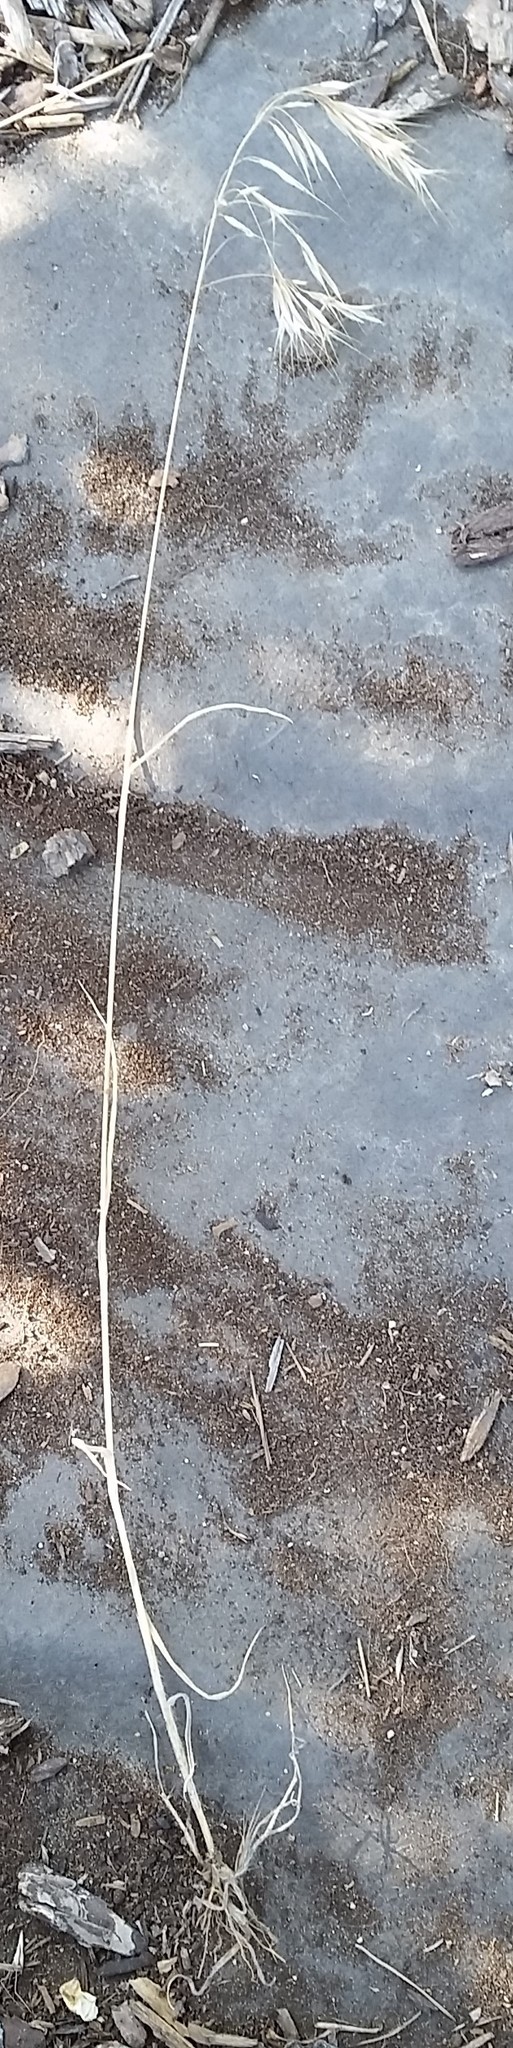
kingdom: Plantae
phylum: Tracheophyta
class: Liliopsida
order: Poales
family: Poaceae
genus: Bromus
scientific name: Bromus tectorum
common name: Cheatgrass
